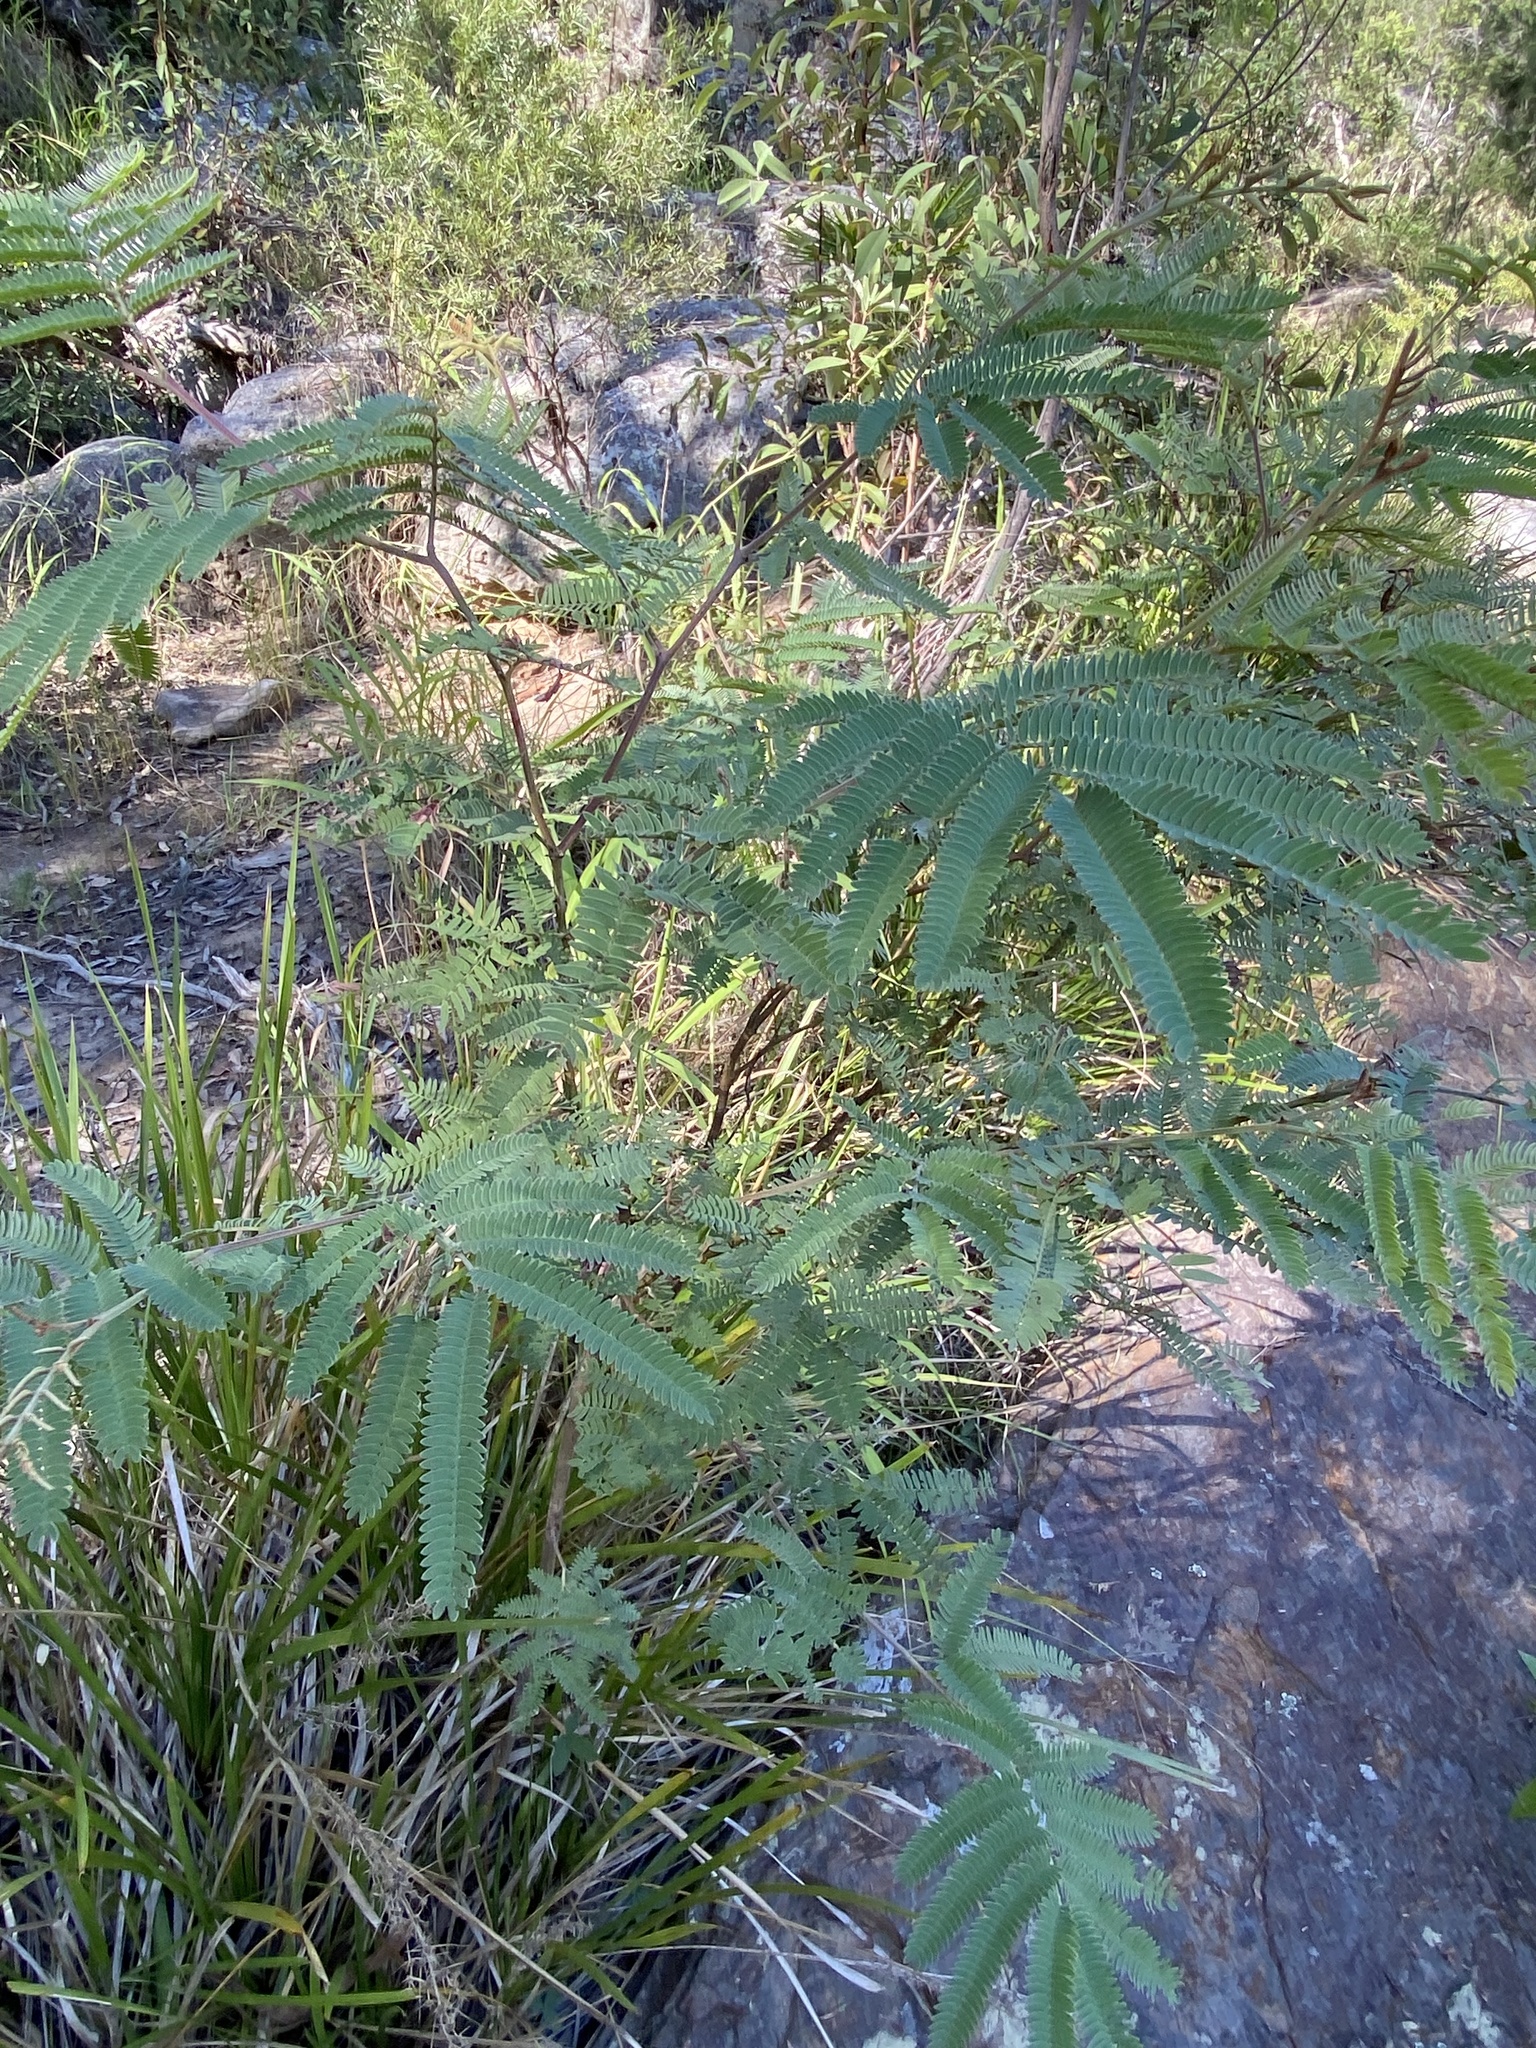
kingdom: Plantae
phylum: Tracheophyta
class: Magnoliopsida
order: Fabales
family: Fabaceae
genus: Acacia
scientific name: Acacia glaucocarpa
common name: Glory wattle
